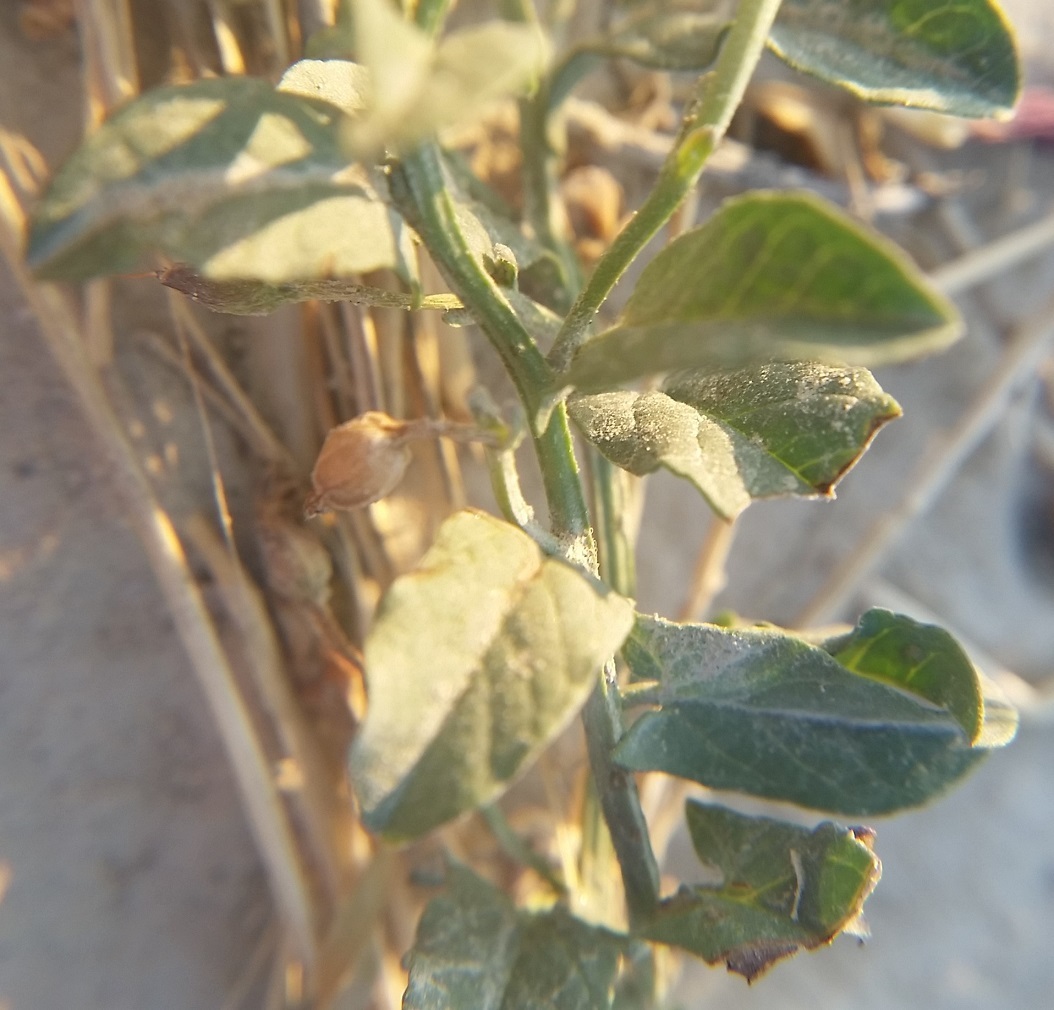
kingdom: Plantae
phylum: Tracheophyta
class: Magnoliopsida
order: Solanales
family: Convolvulaceae
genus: Convolvulus
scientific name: Convolvulus arvensis
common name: Field bindweed
